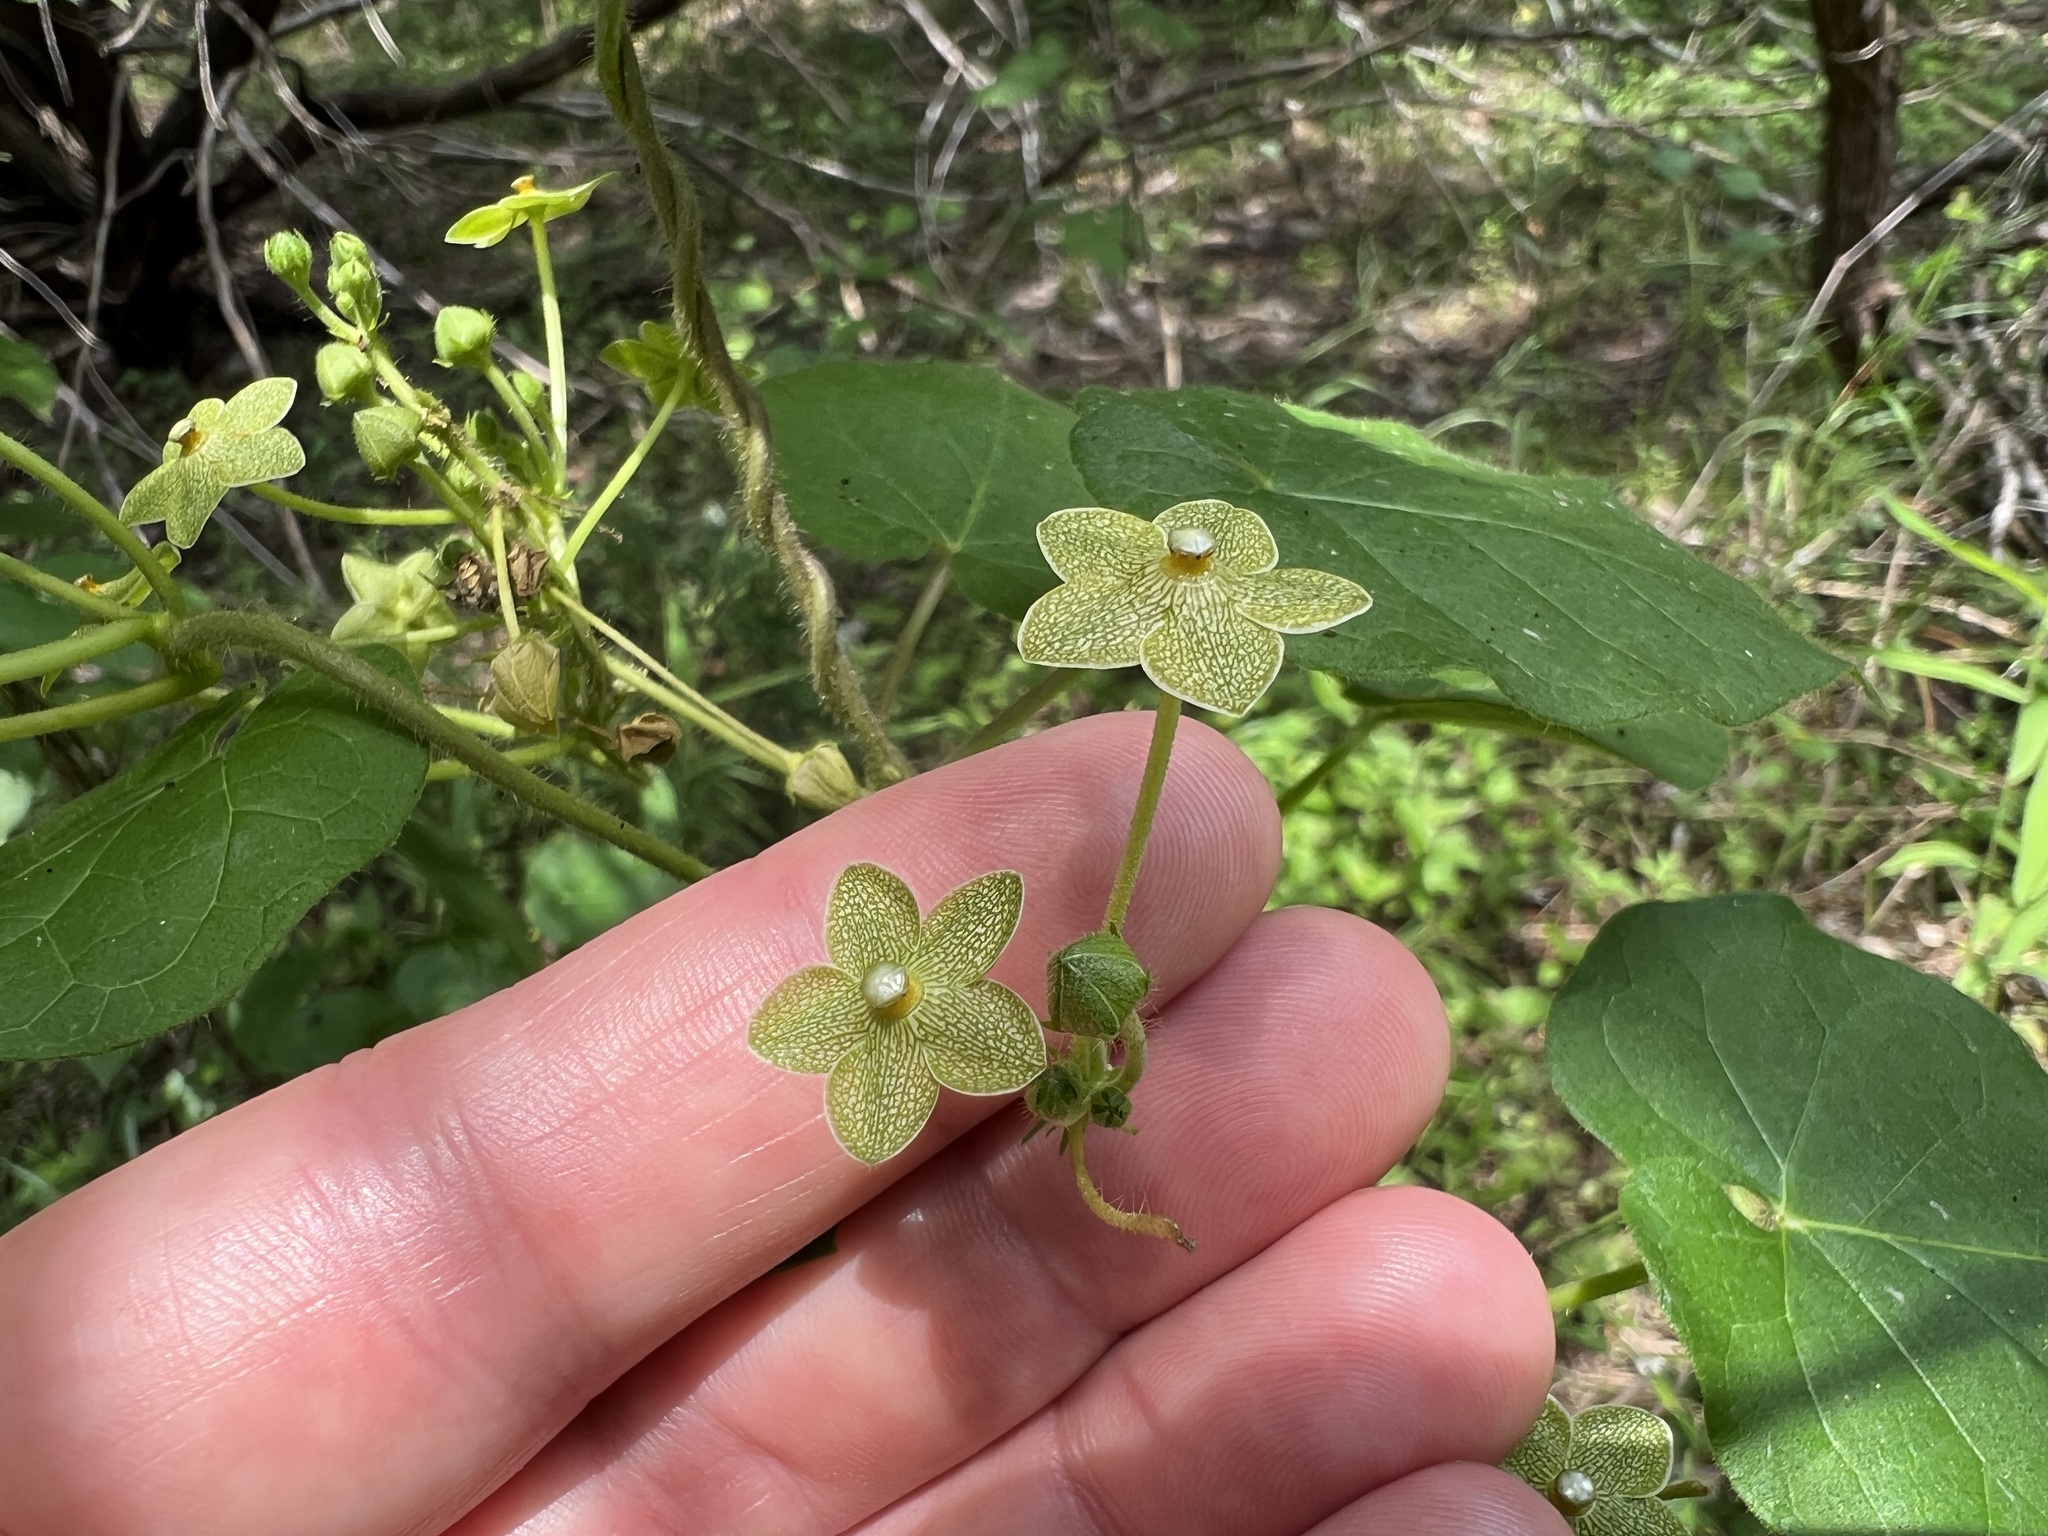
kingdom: Plantae
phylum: Tracheophyta
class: Magnoliopsida
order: Gentianales
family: Apocynaceae
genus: Dictyanthus
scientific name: Dictyanthus reticulatus
